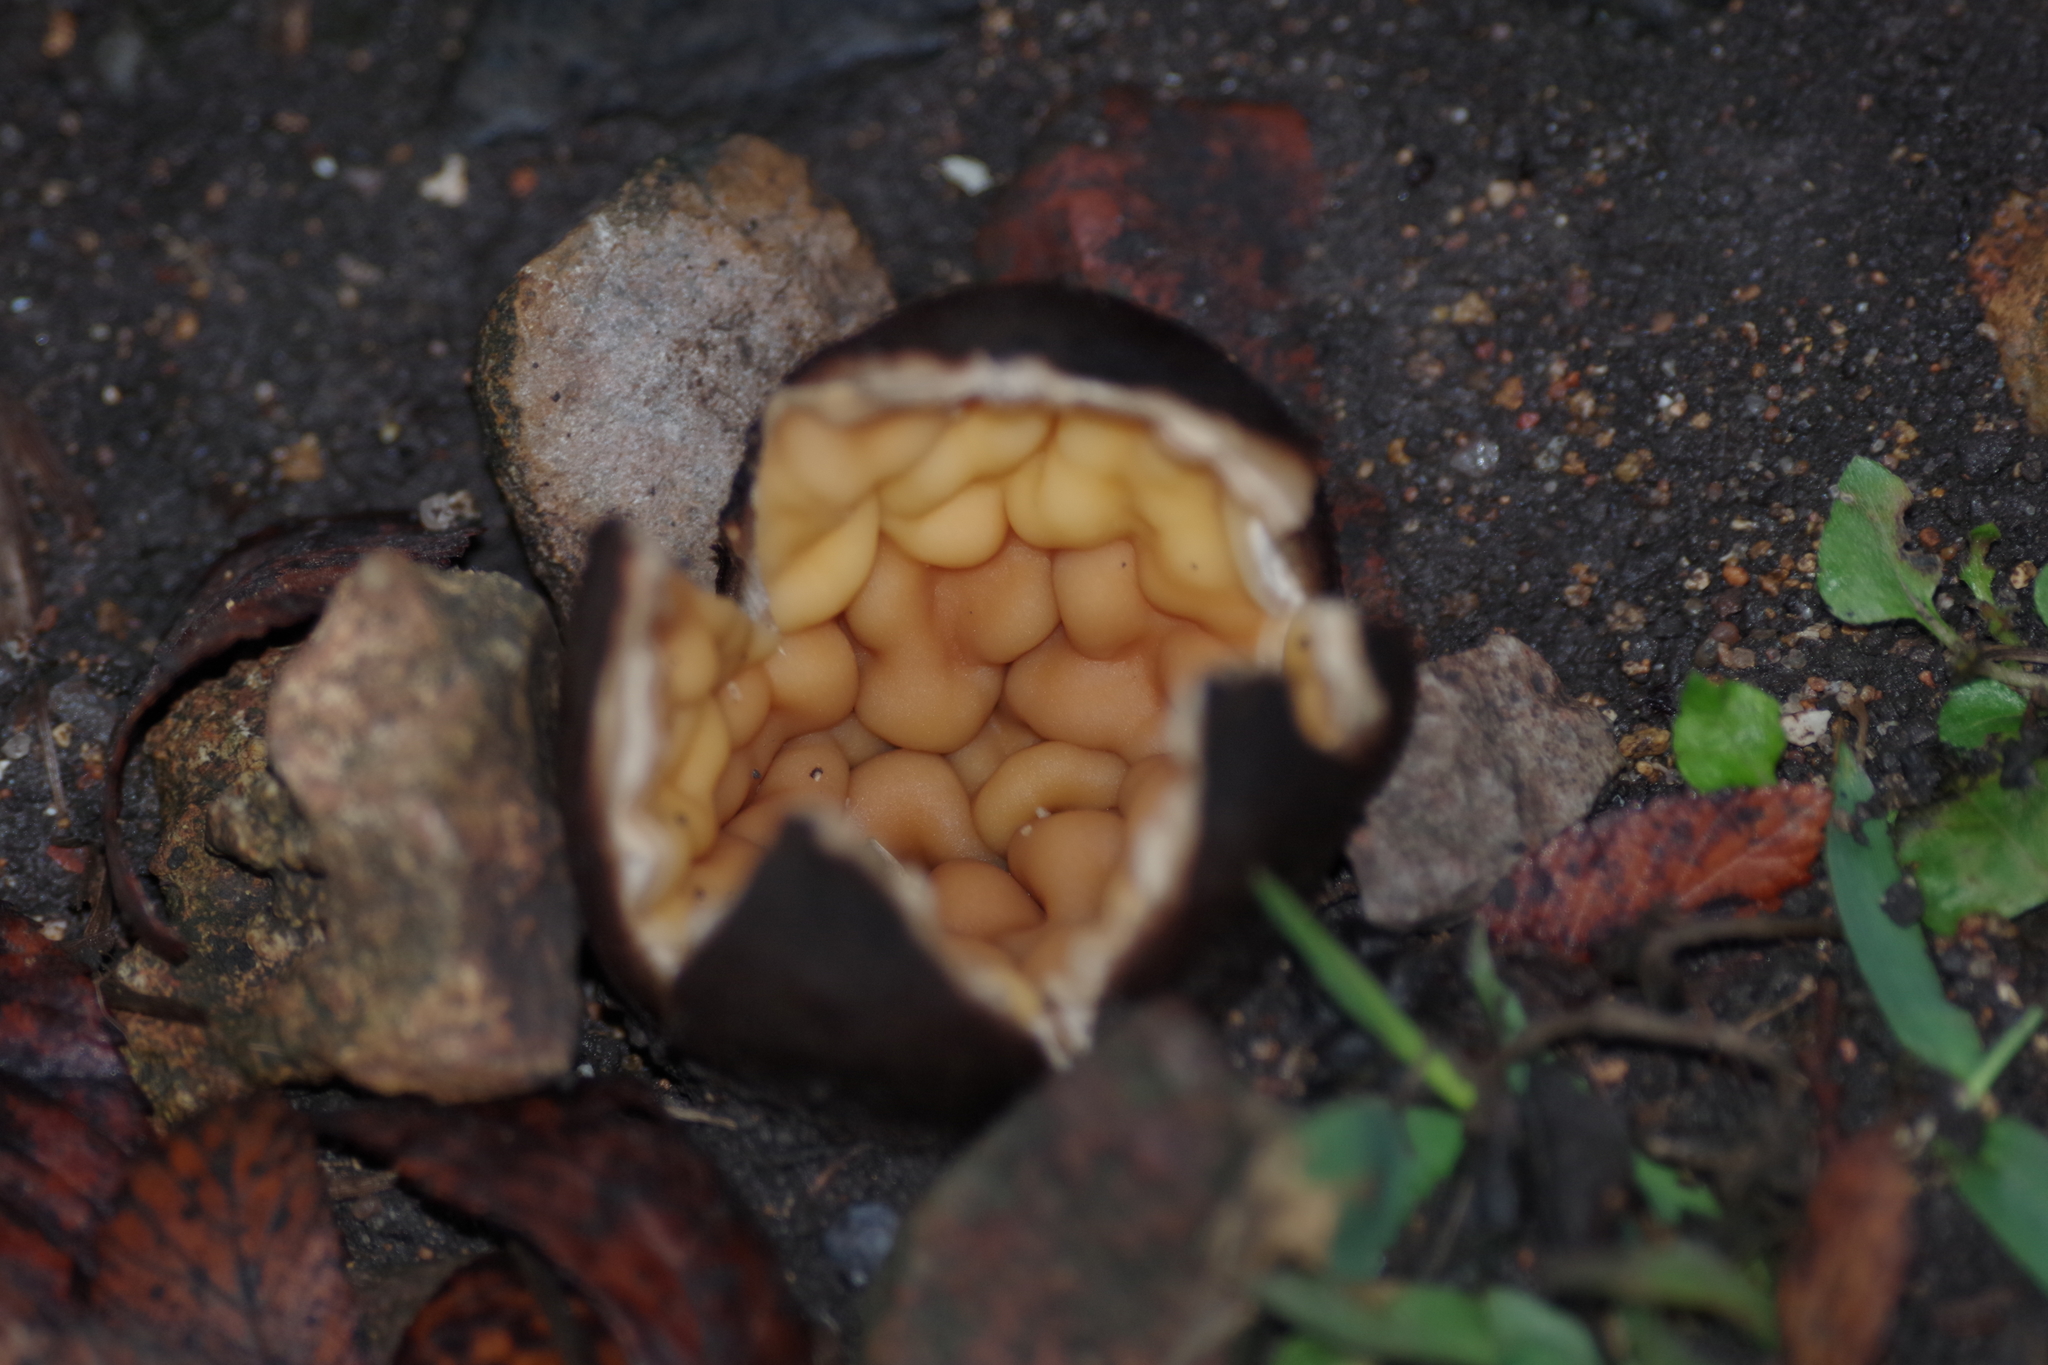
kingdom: Fungi
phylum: Ascomycota
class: Pezizomycetes
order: Pezizales
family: Chorioactidaceae
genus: Chorioactis
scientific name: Chorioactis geaster
